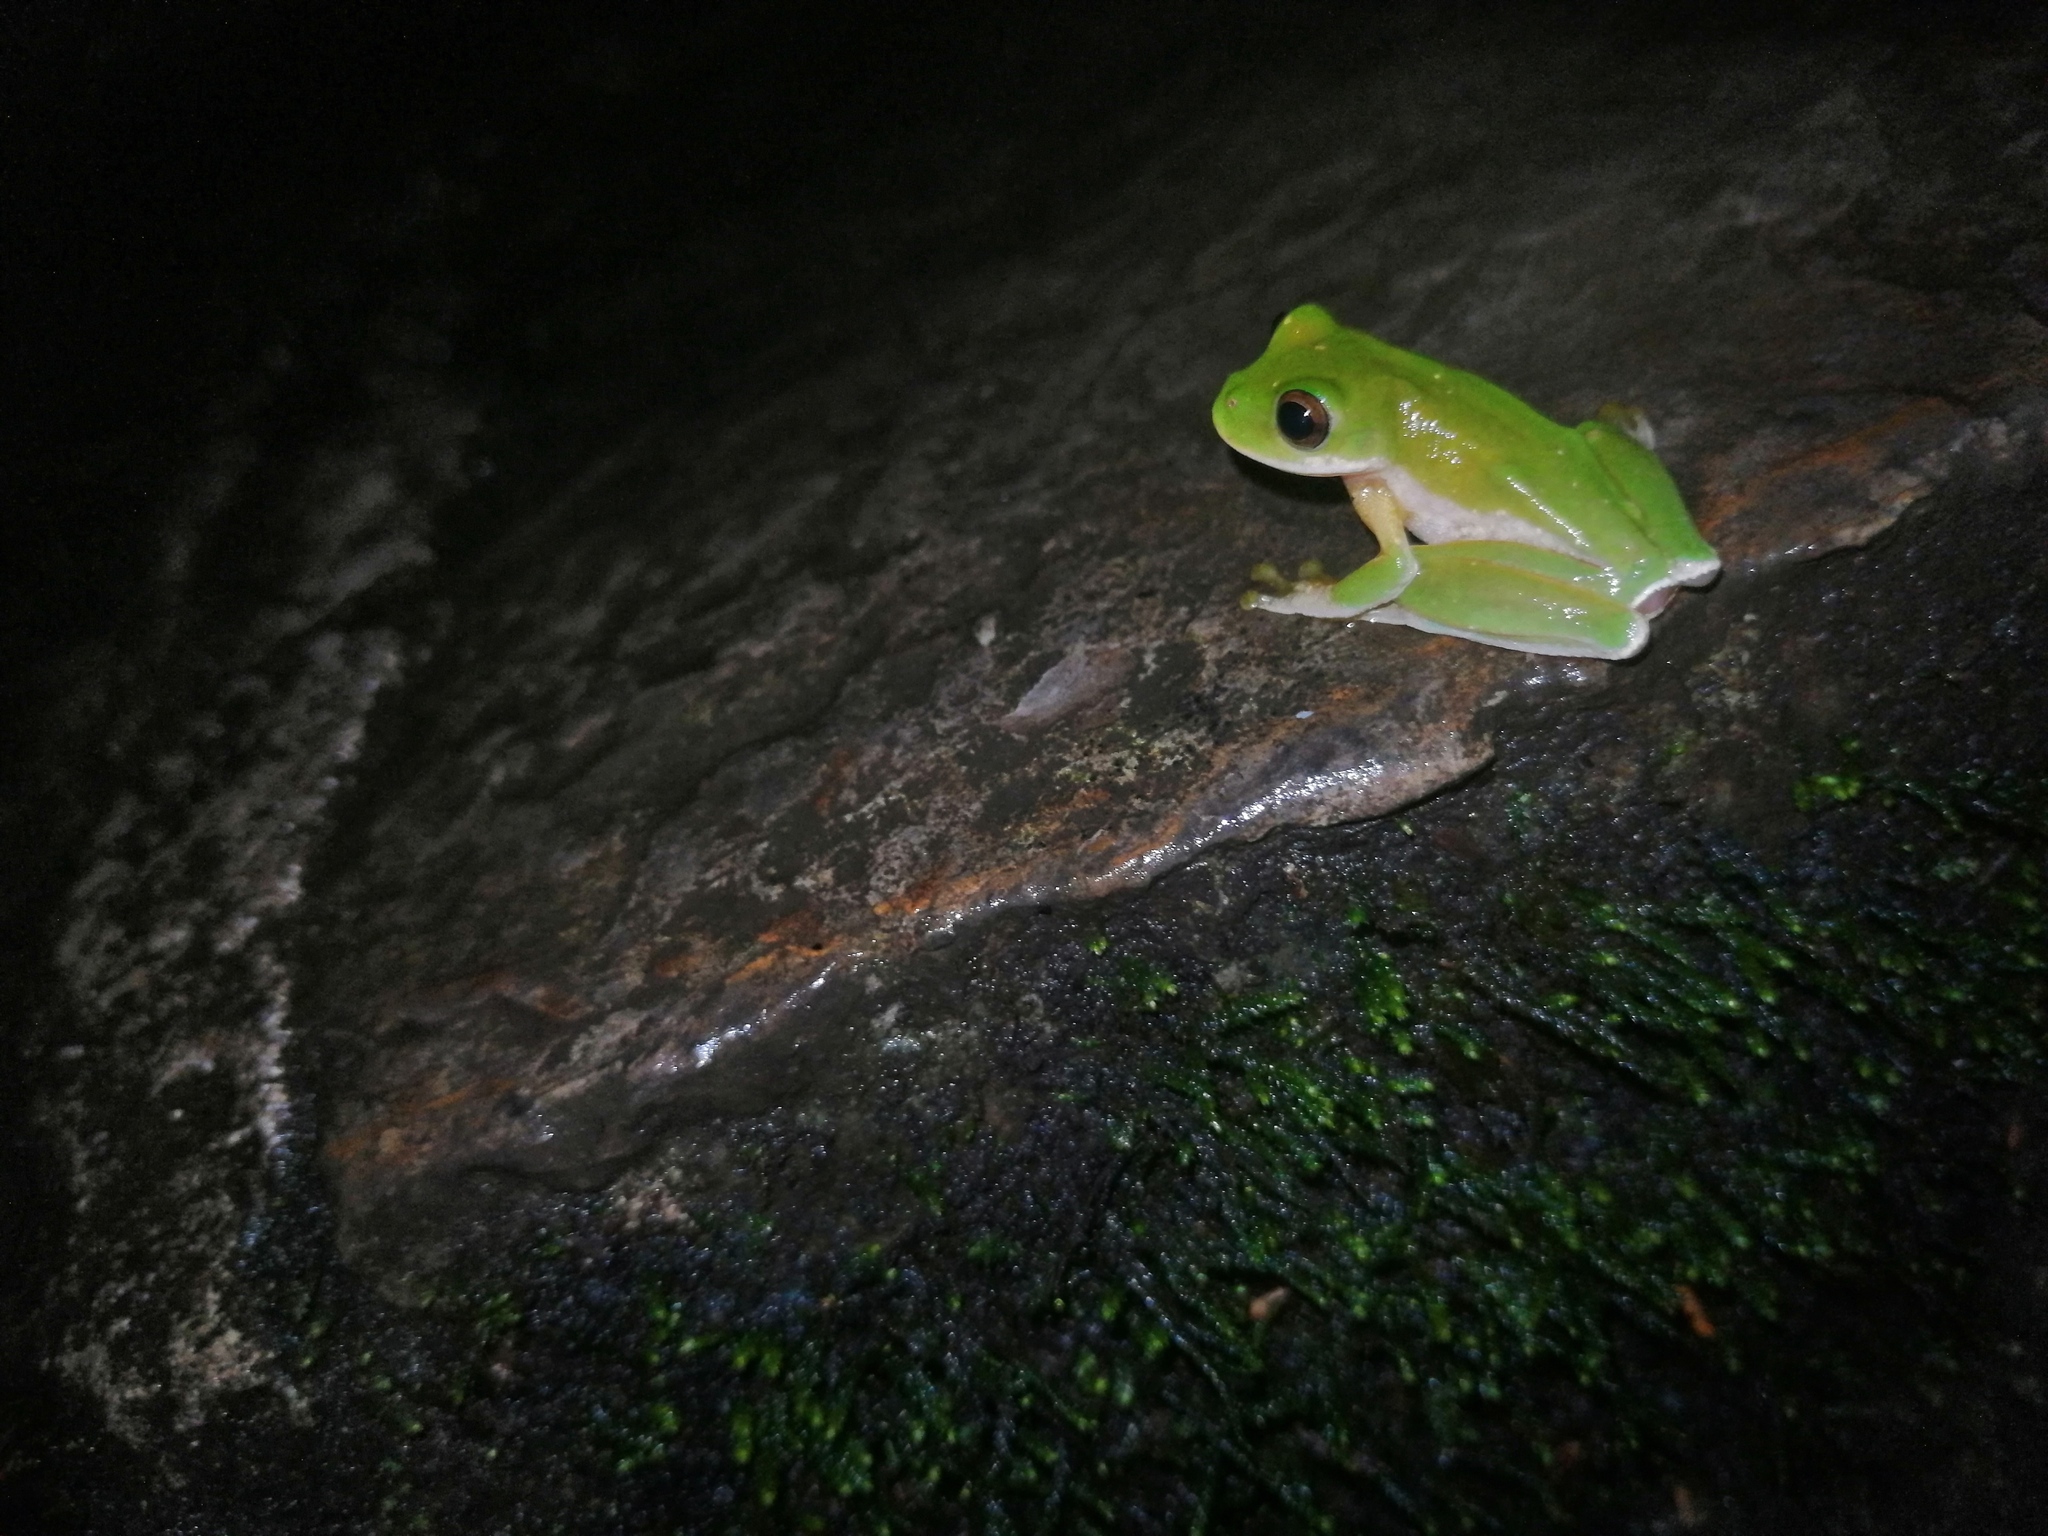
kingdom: Animalia
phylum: Chordata
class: Amphibia
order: Anura
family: Hylidae
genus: Rheohyla
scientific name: Rheohyla miotympanum
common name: Small-eard hyla
